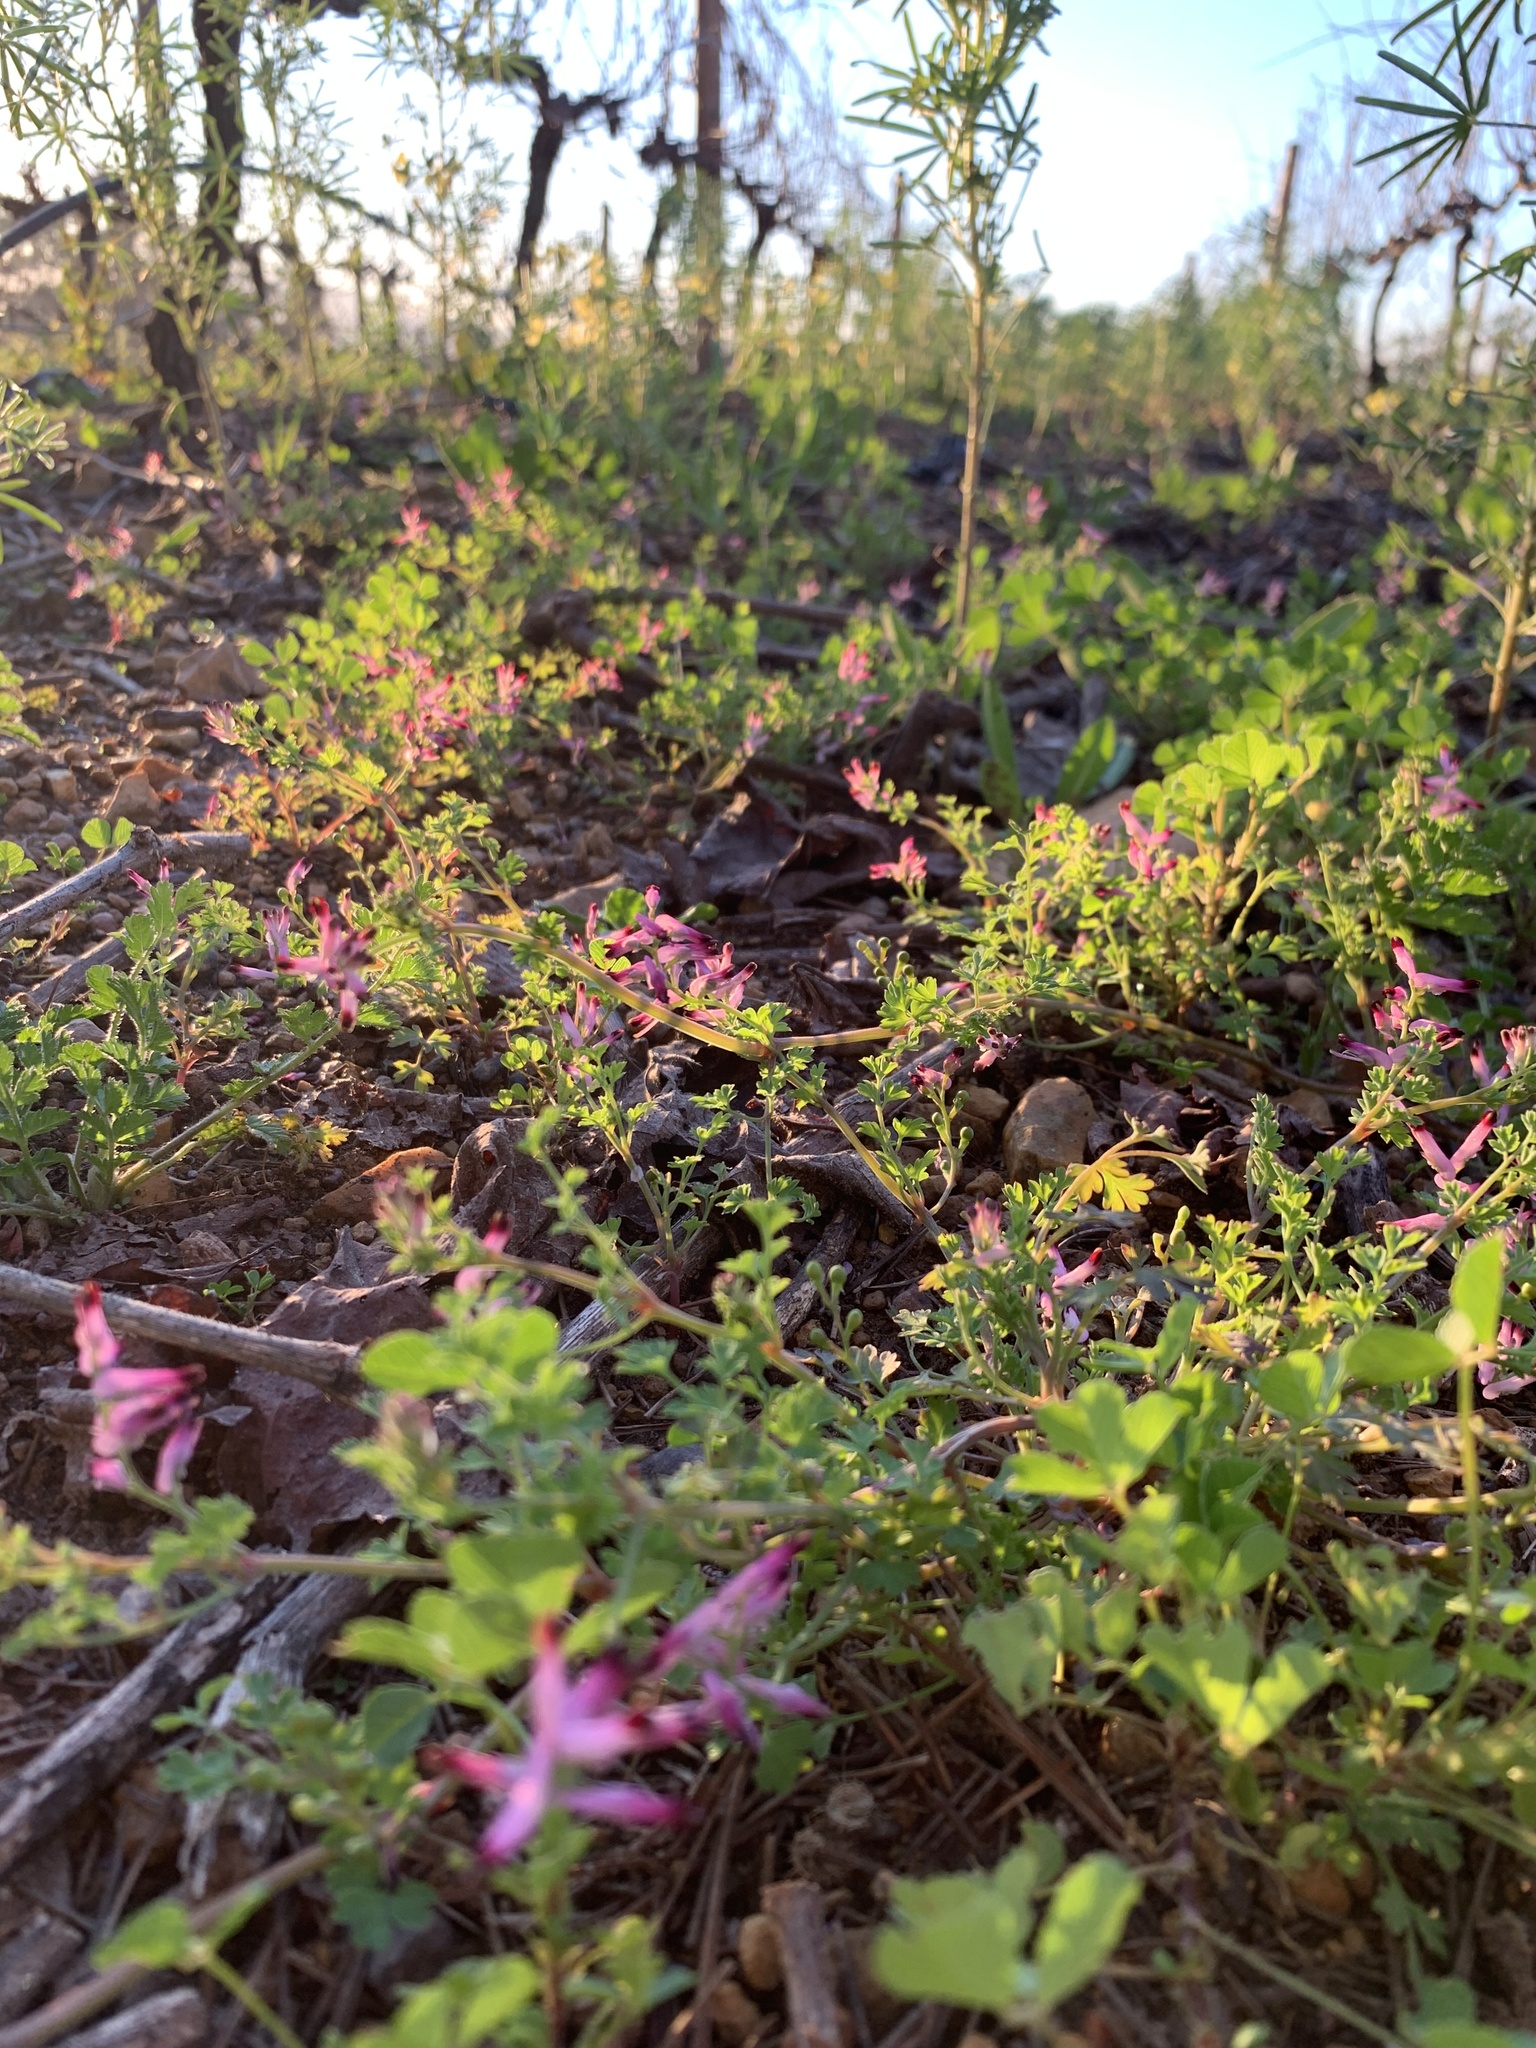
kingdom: Plantae
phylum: Tracheophyta
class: Magnoliopsida
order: Ranunculales
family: Papaveraceae
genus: Fumaria
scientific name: Fumaria muralis
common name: Common ramping-fumitory
